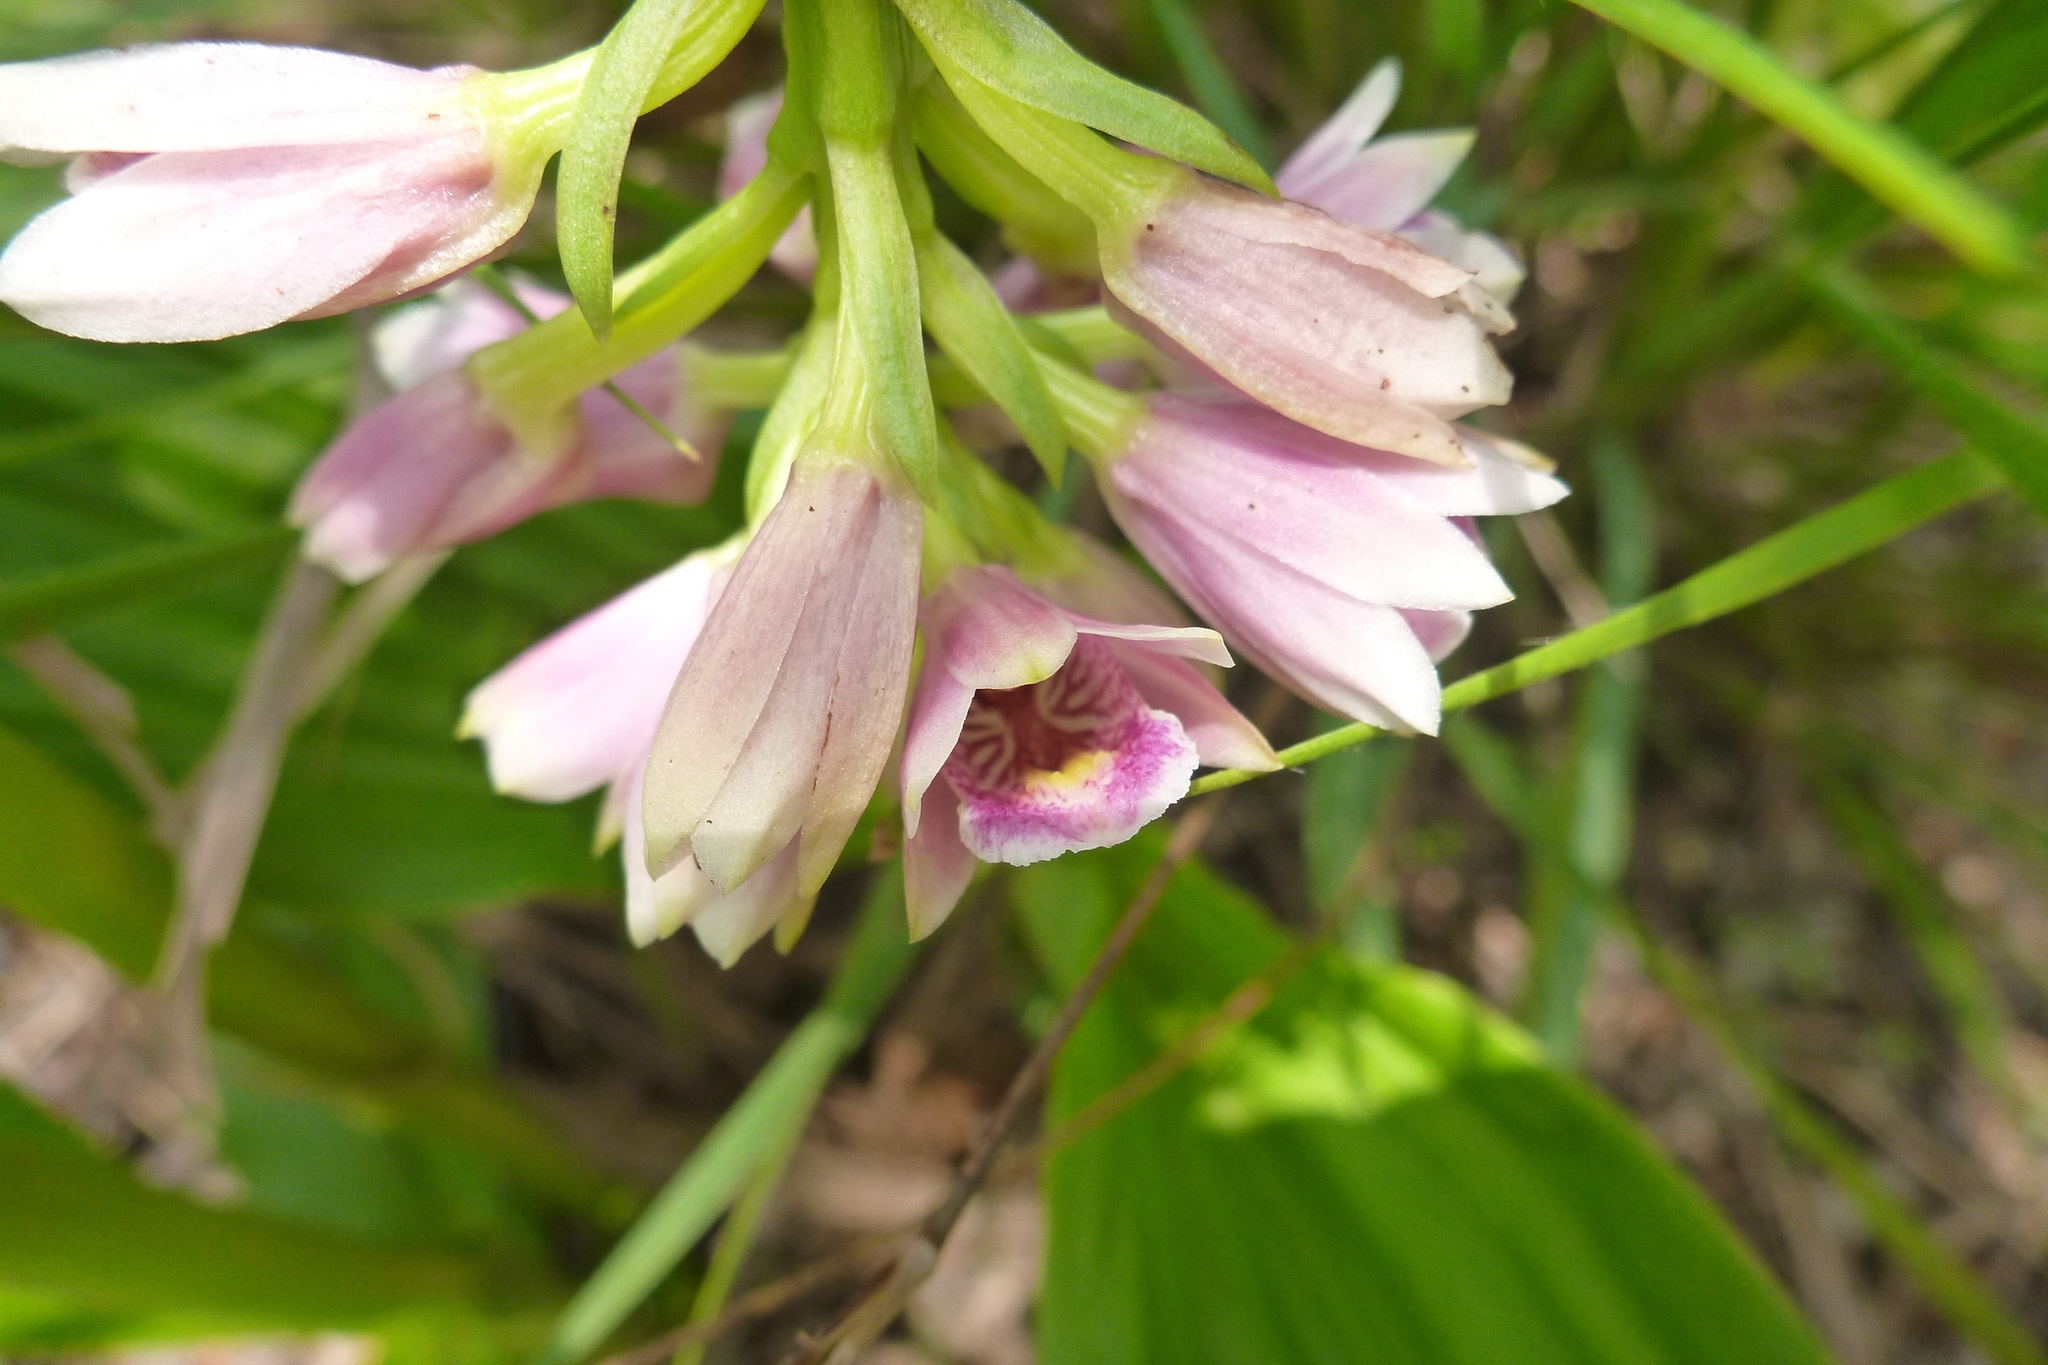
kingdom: Plantae
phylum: Tracheophyta
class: Liliopsida
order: Asparagales
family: Orchidaceae
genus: Eulophia
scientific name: Eulophia cernua
